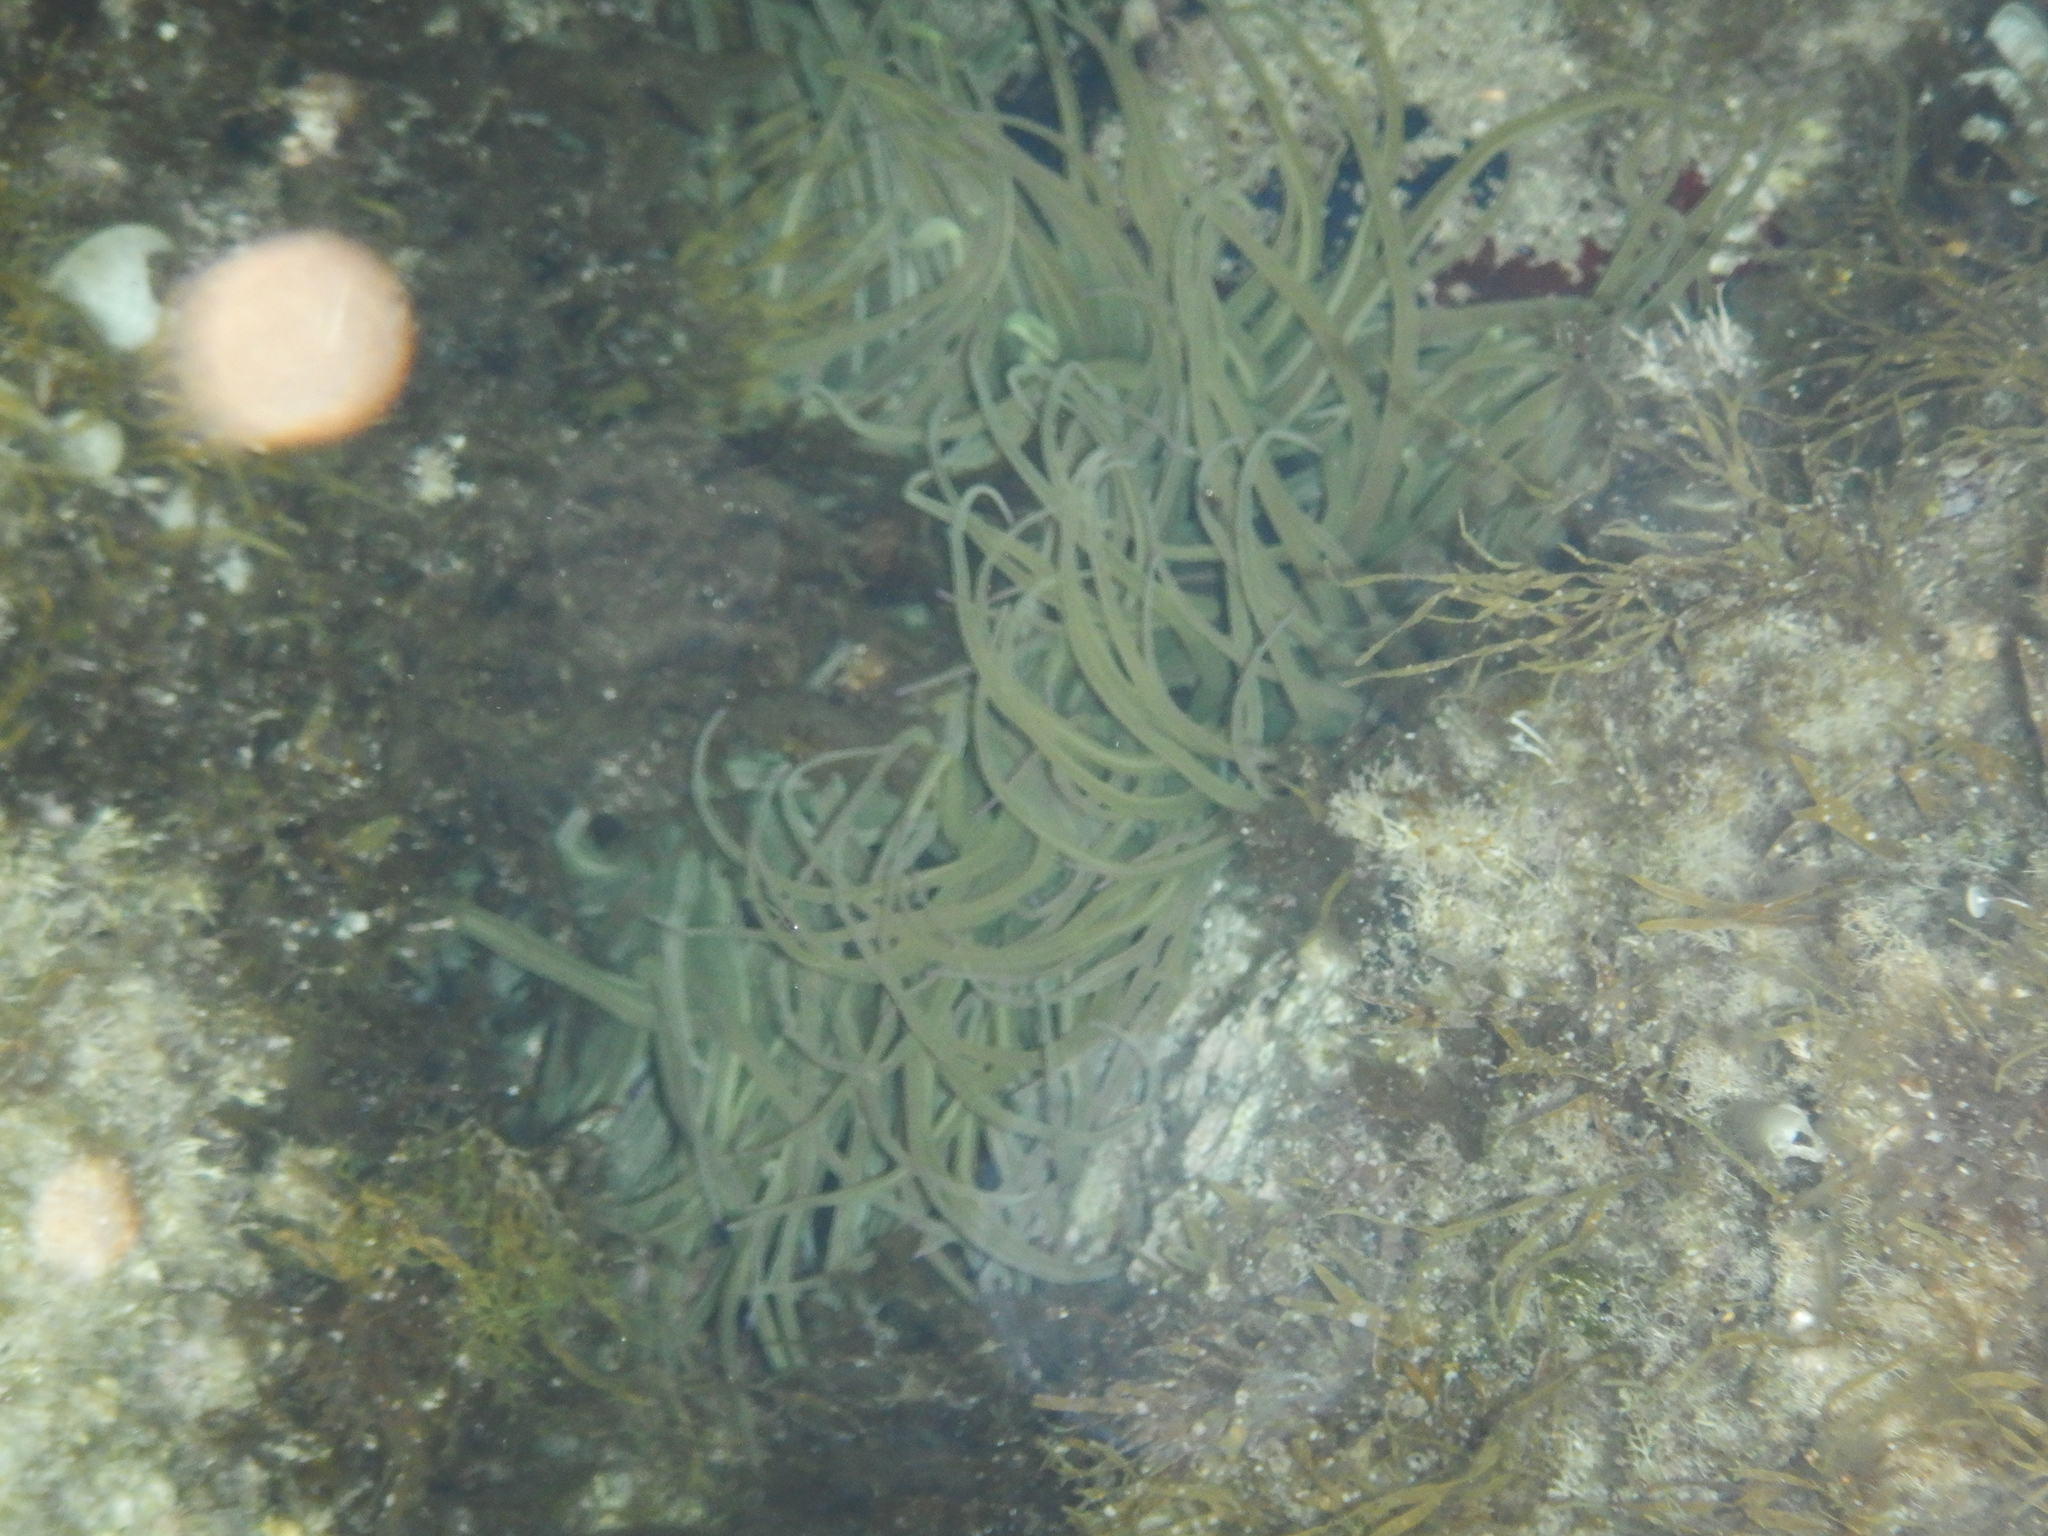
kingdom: Animalia
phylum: Cnidaria
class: Anthozoa
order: Actiniaria
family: Actiniidae
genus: Anemonia
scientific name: Anemonia viridis
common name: Snakelocks anemone
